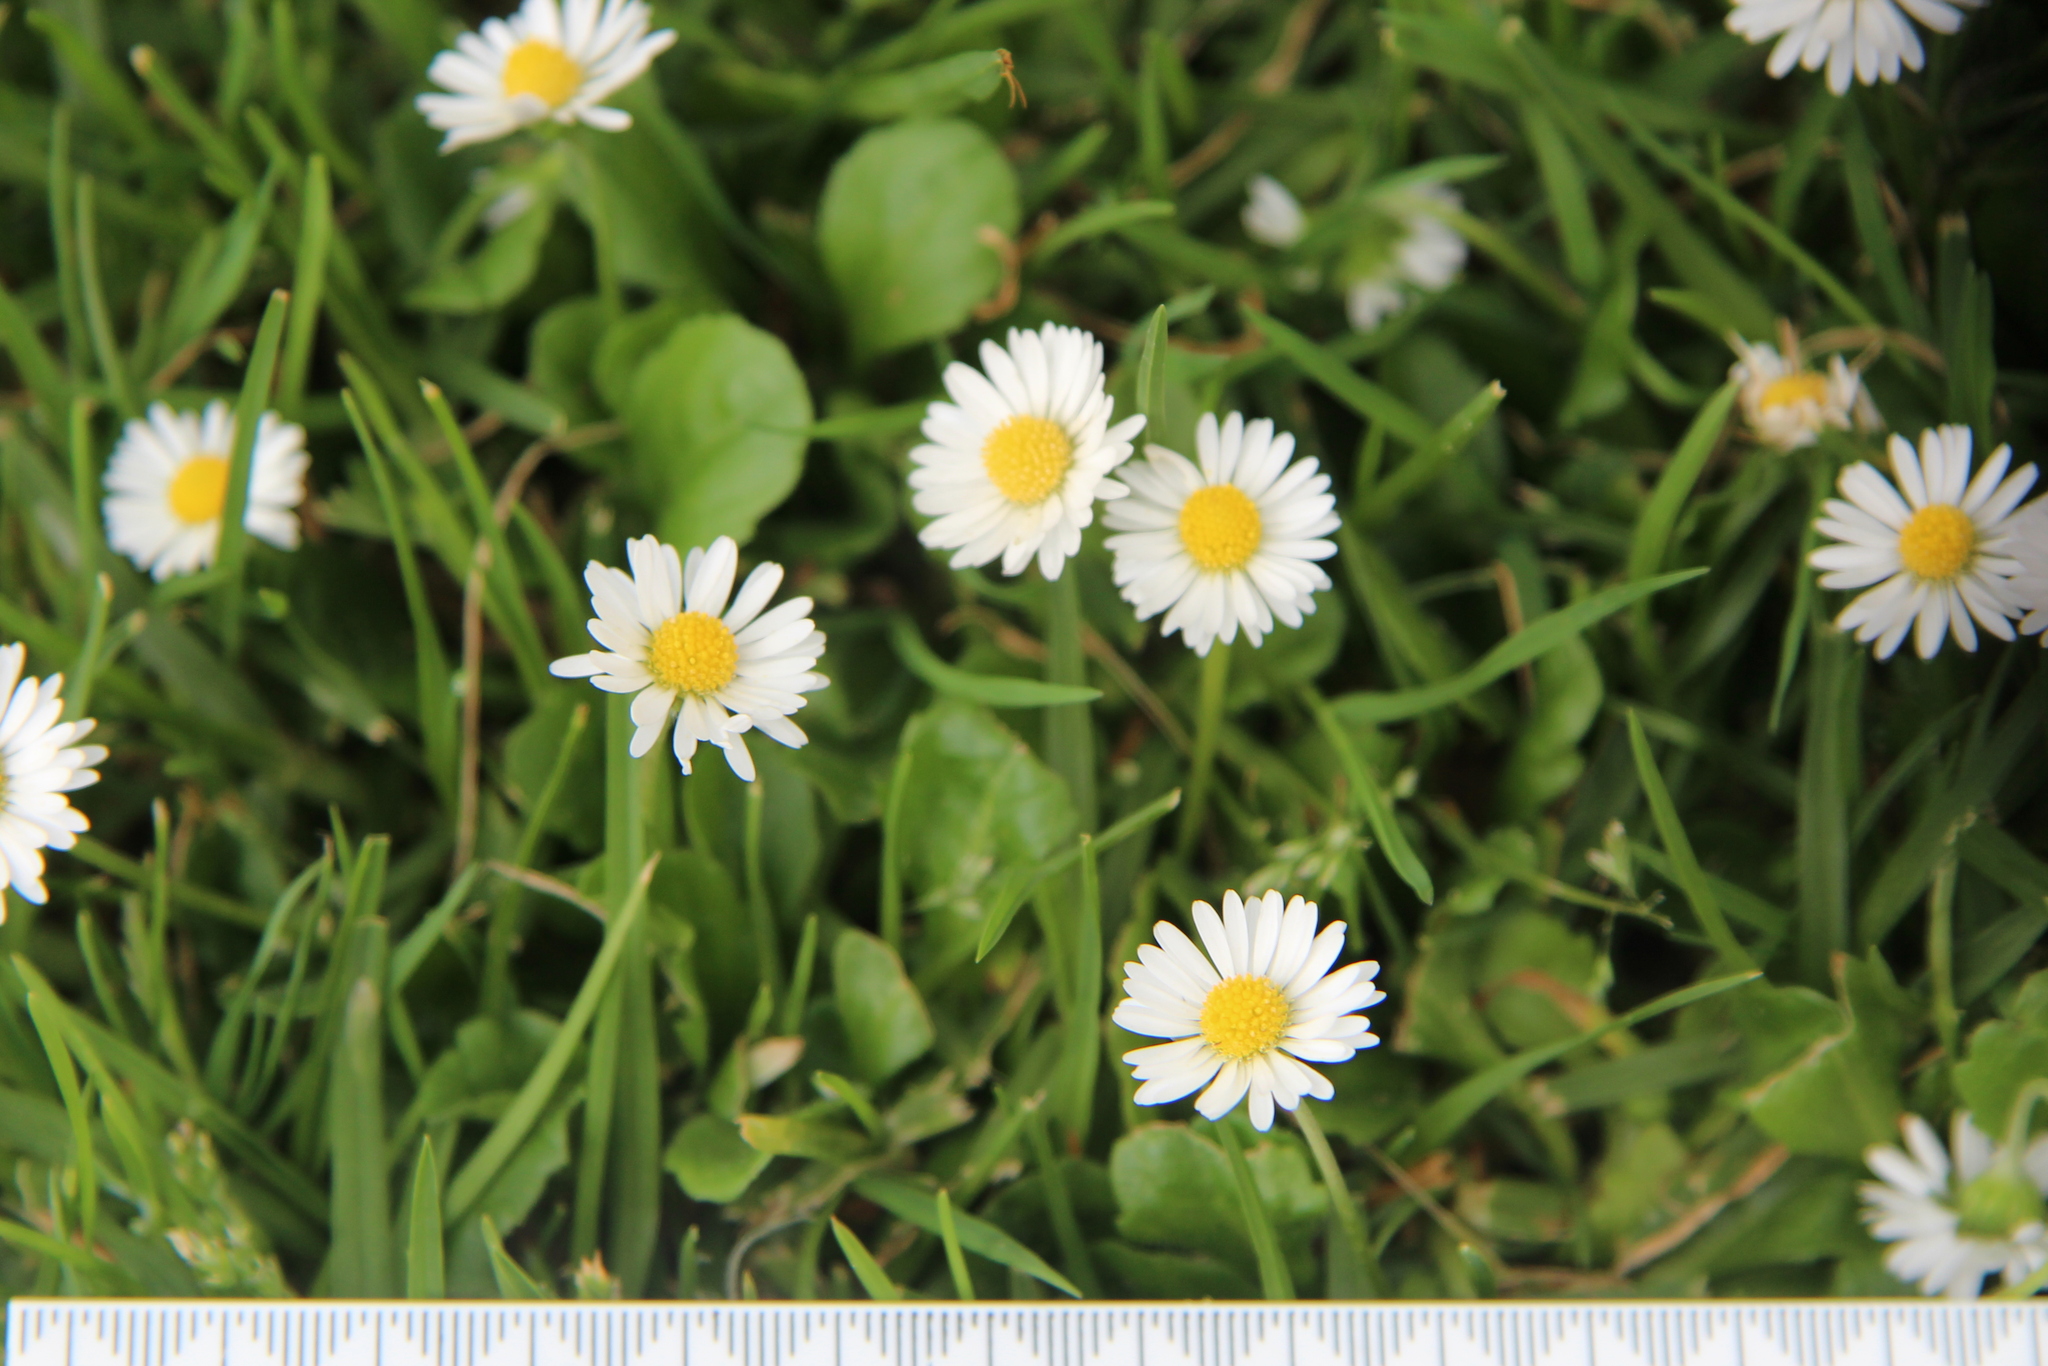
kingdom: Plantae
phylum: Tracheophyta
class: Magnoliopsida
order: Asterales
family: Asteraceae
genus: Bellis
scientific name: Bellis perennis
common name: Lawndaisy
